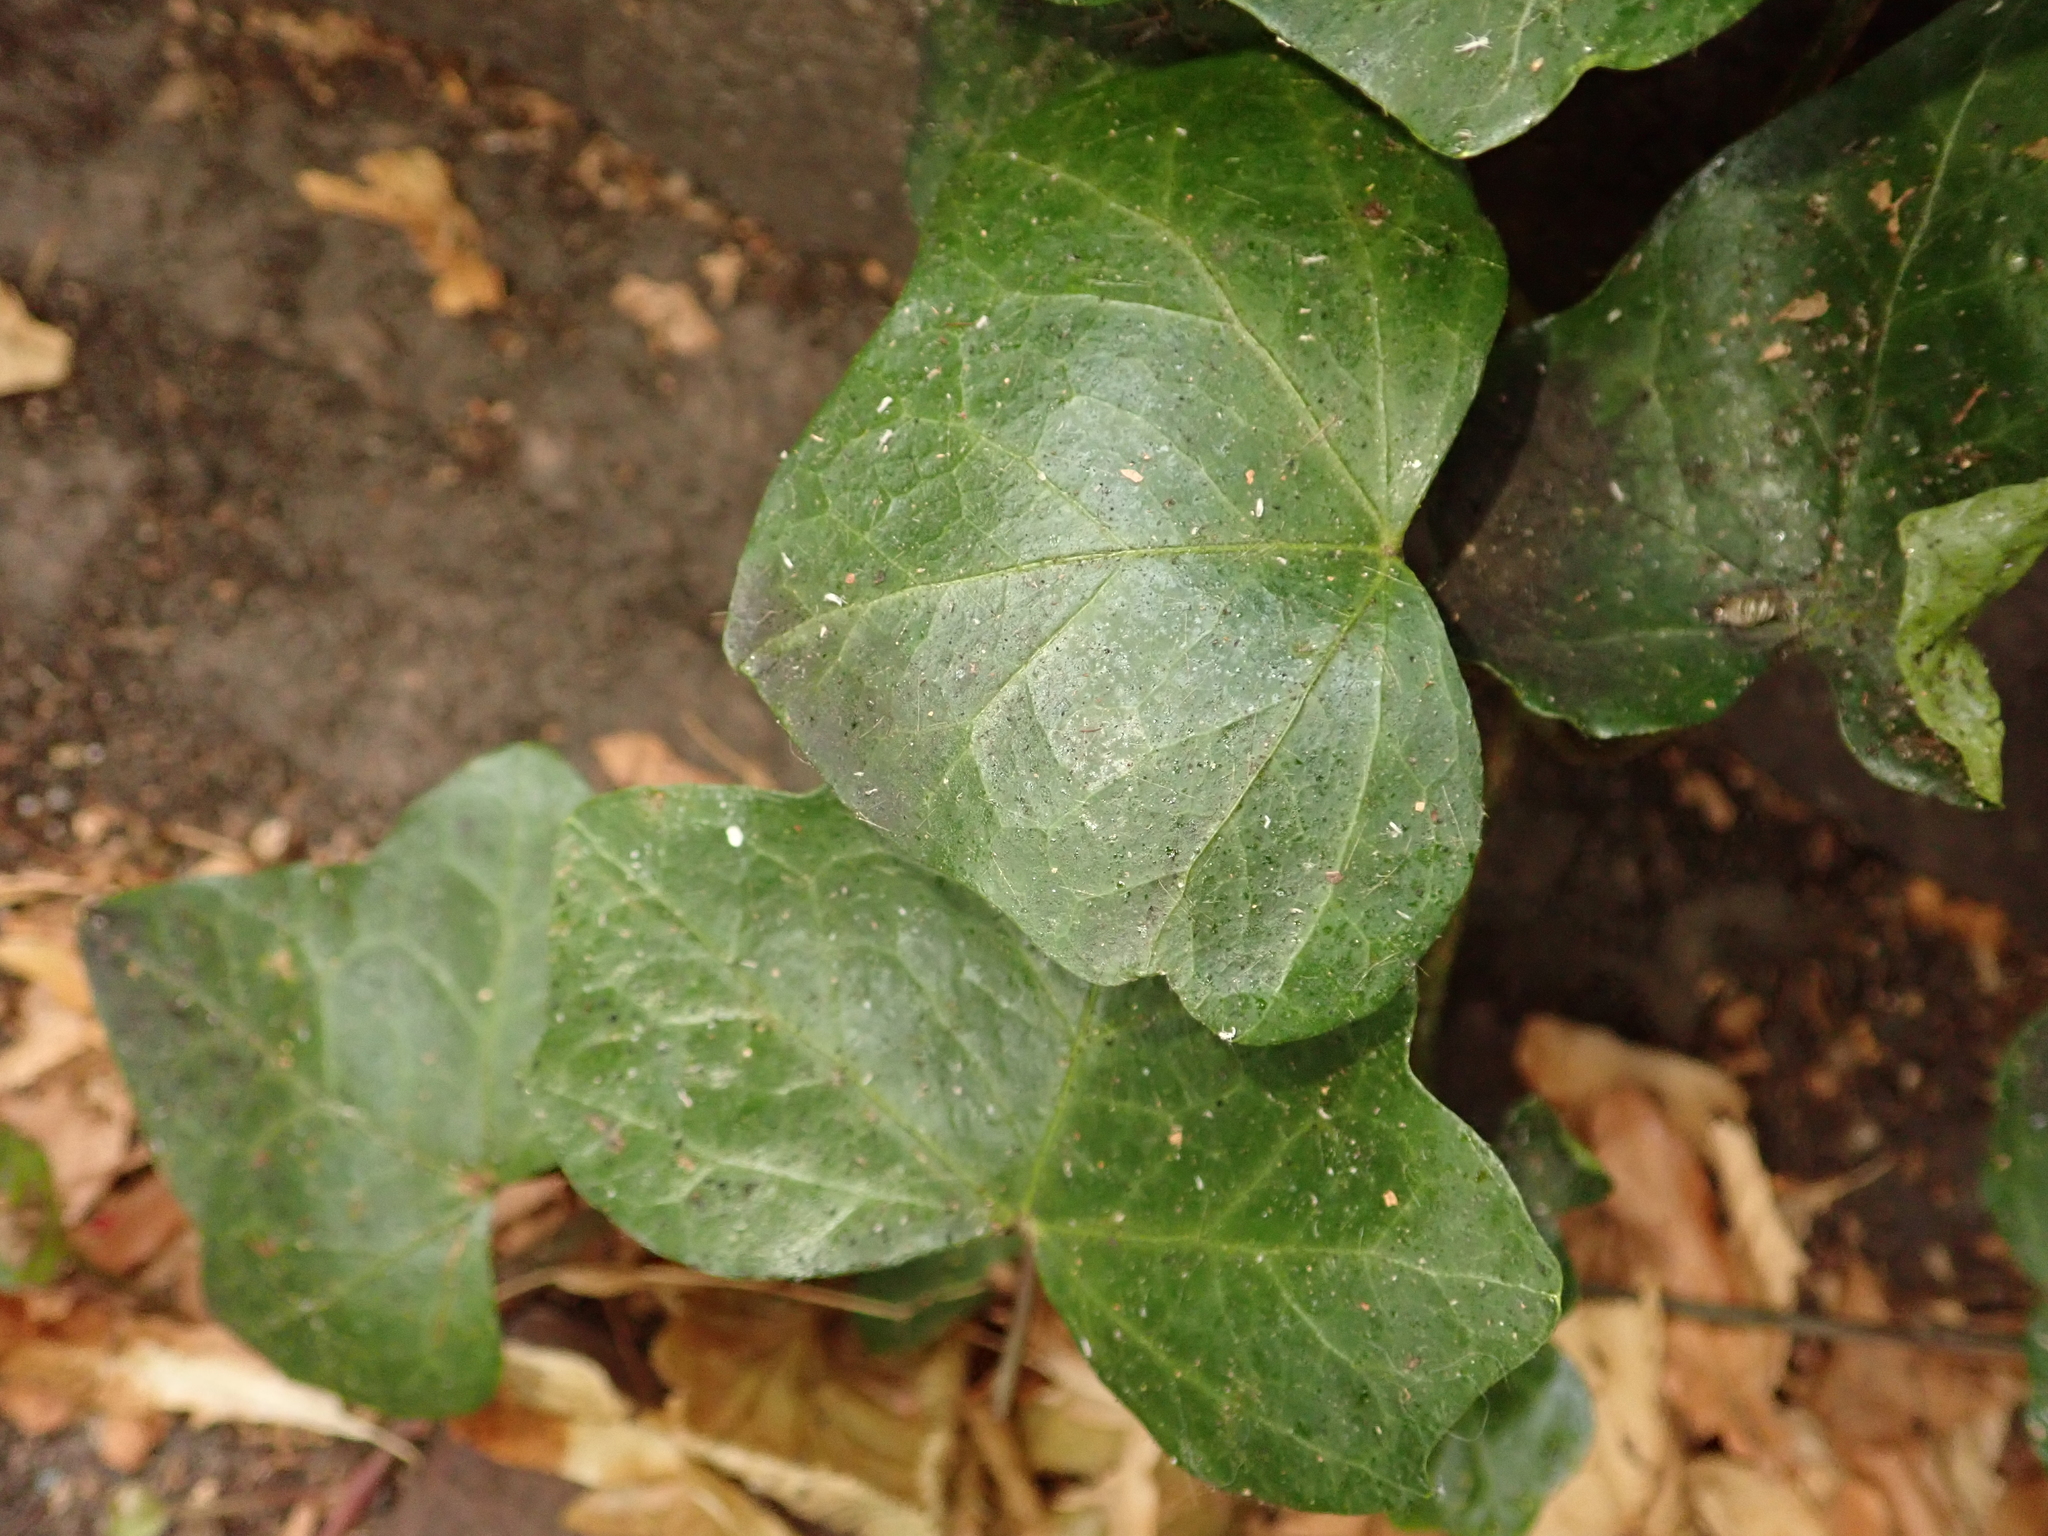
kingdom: Plantae
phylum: Tracheophyta
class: Magnoliopsida
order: Apiales
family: Araliaceae
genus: Hedera
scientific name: Hedera helix
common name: Ivy
